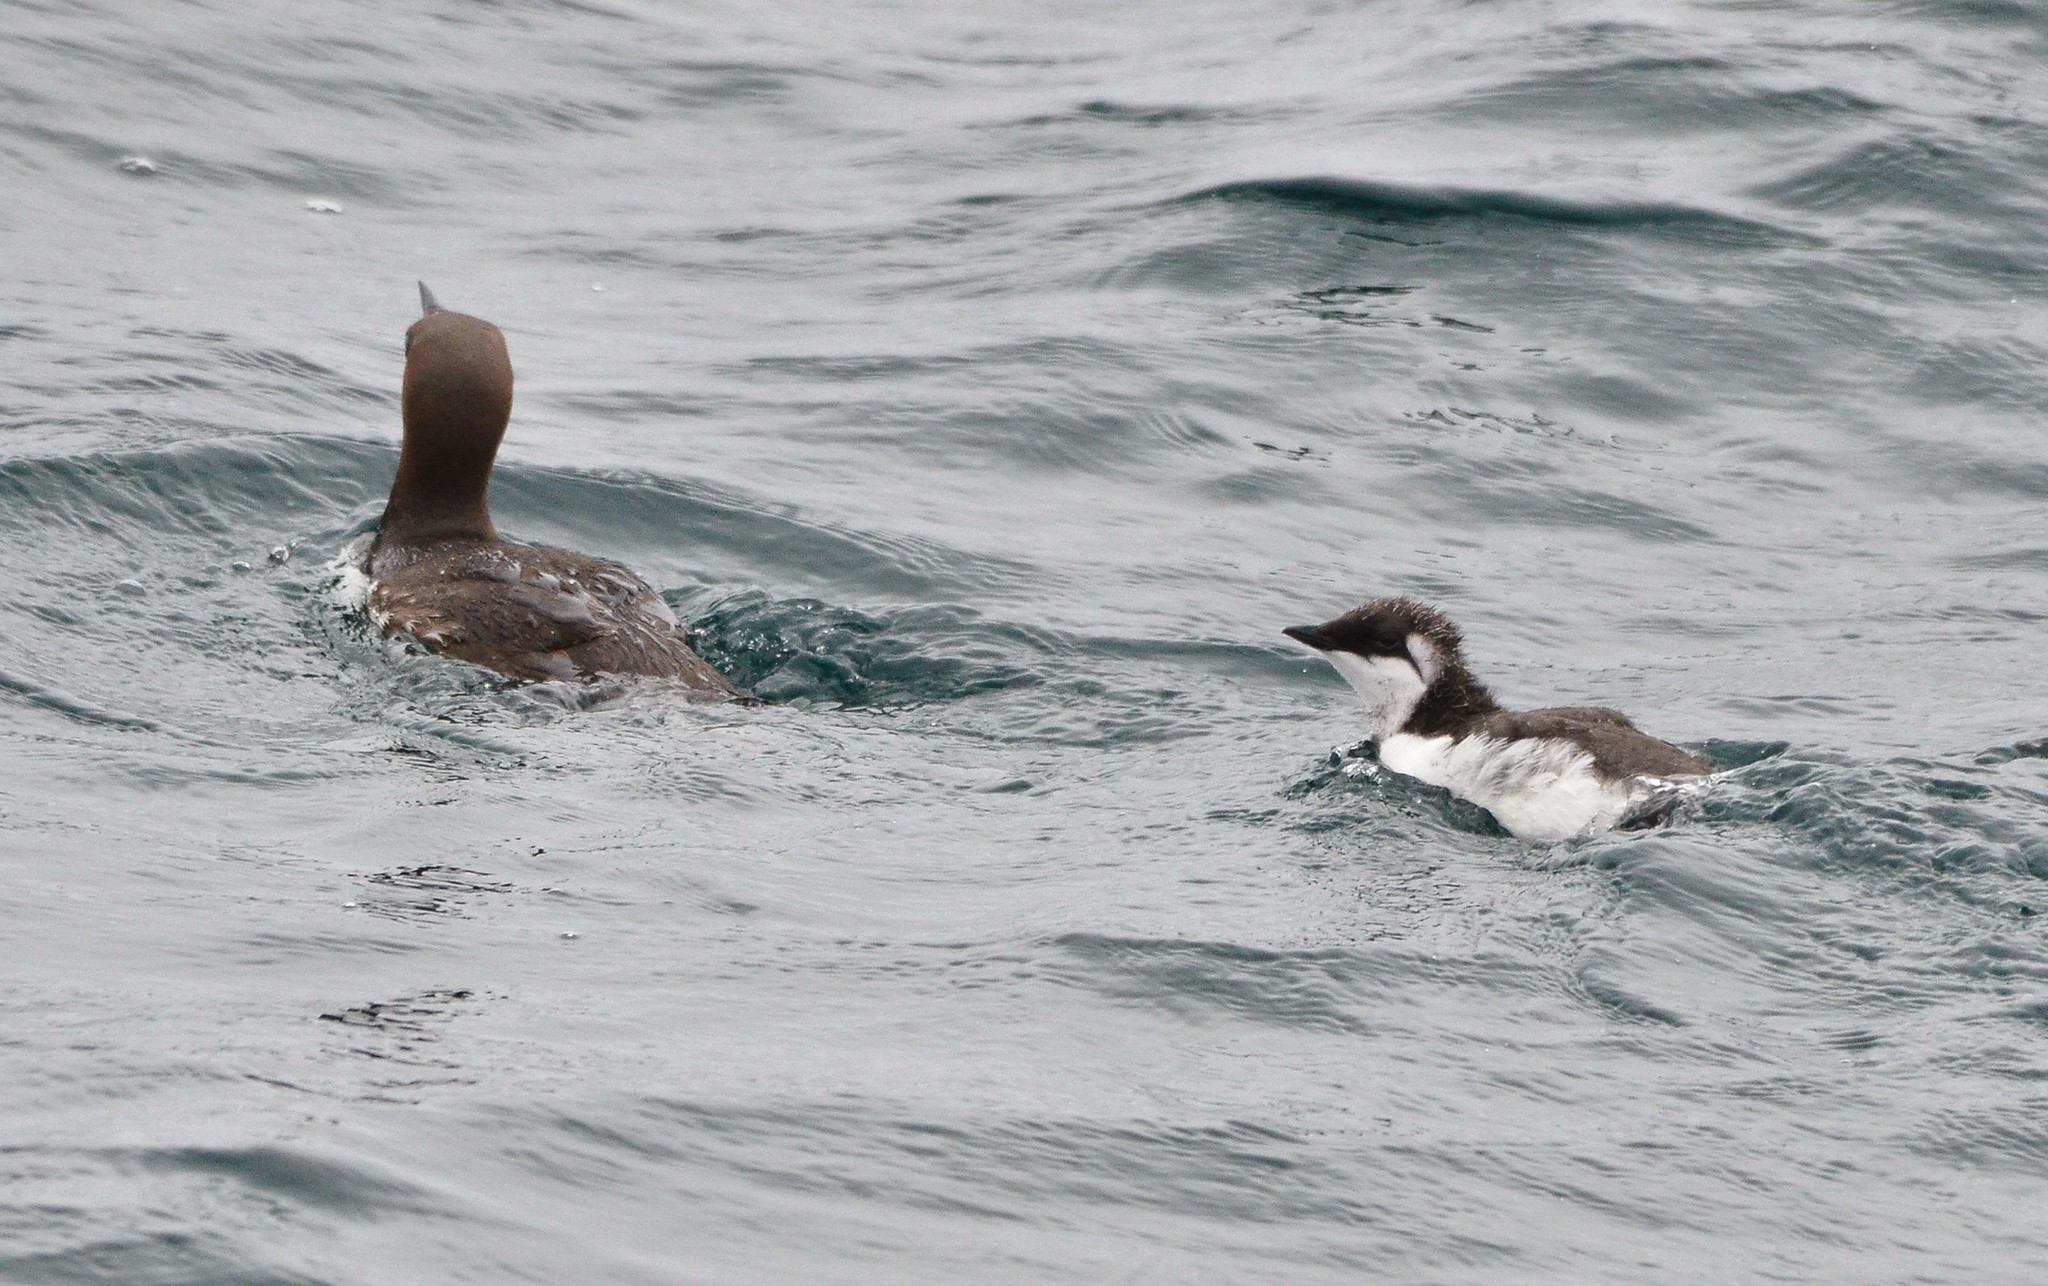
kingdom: Animalia
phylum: Chordata
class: Aves
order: Charadriiformes
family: Alcidae
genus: Uria
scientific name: Uria aalge
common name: Common murre
